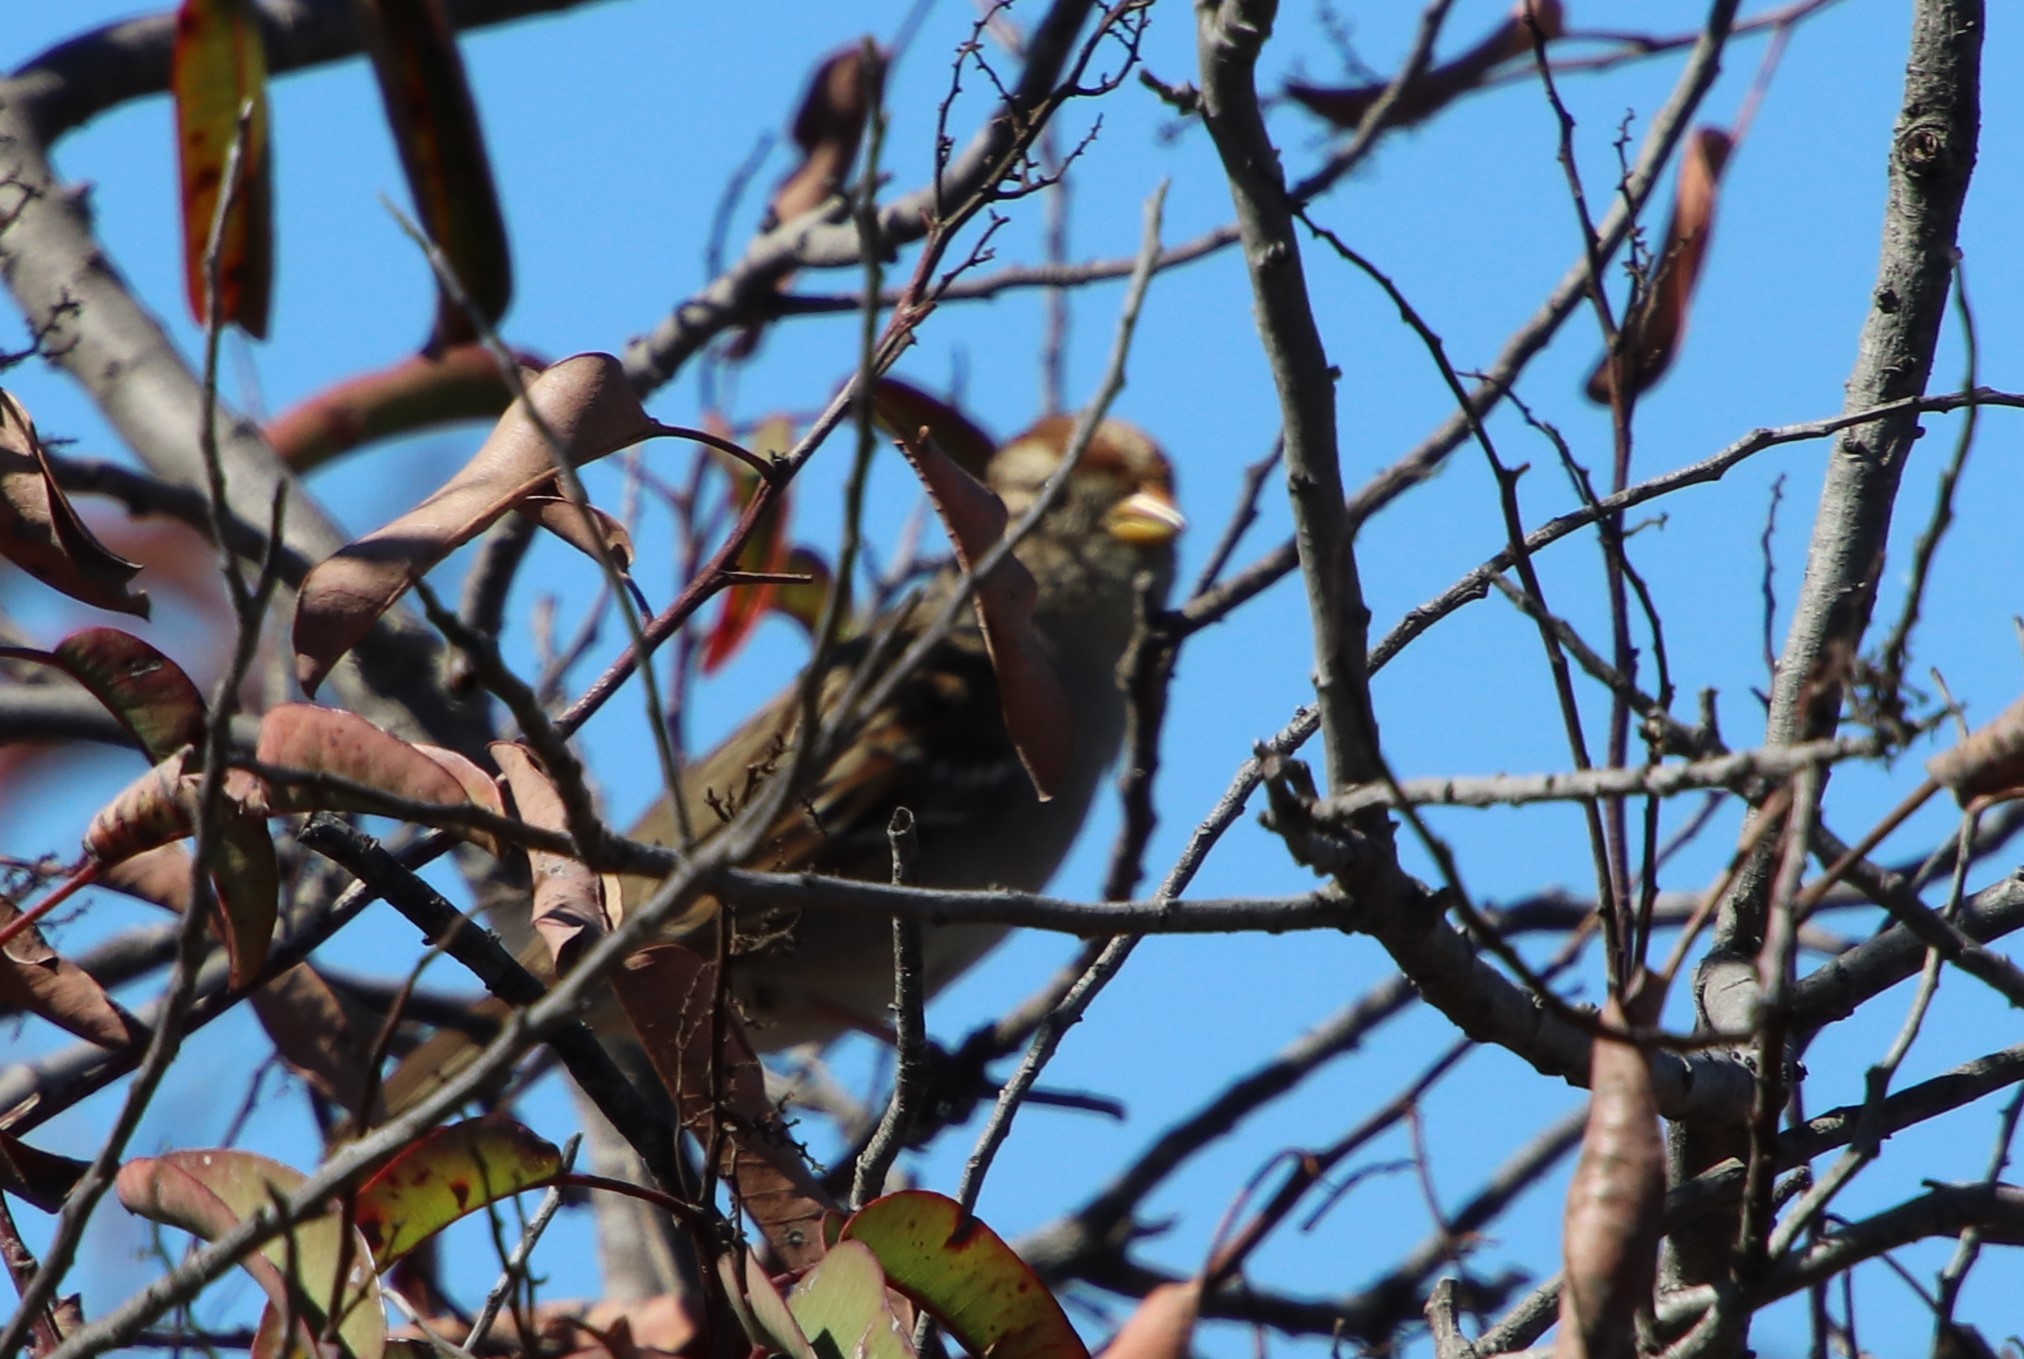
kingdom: Animalia
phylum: Chordata
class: Aves
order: Passeriformes
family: Passerellidae
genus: Zonotrichia
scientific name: Zonotrichia leucophrys
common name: White-crowned sparrow
